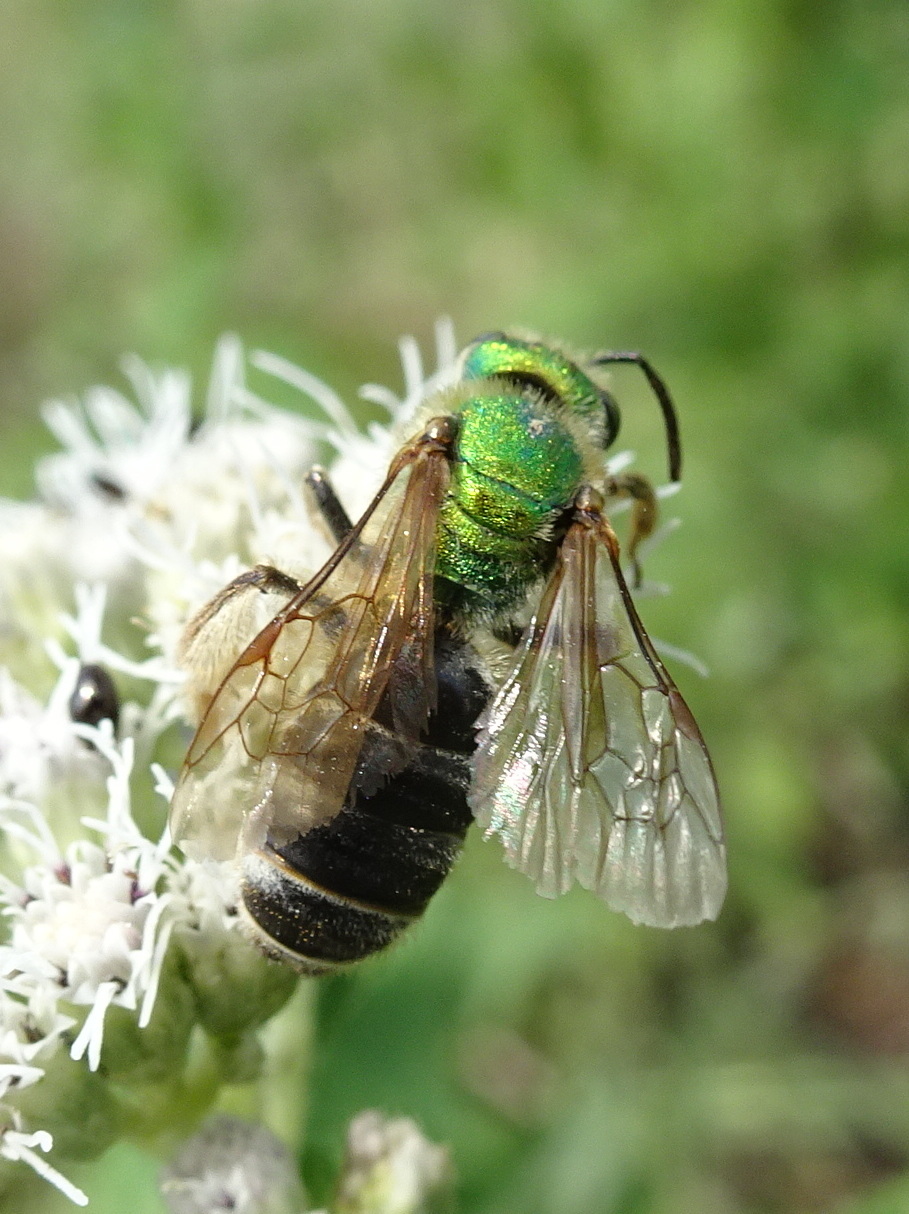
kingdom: Animalia
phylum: Arthropoda
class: Insecta
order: Hymenoptera
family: Halictidae
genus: Agapostemon
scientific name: Agapostemon virescens
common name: Bicolored striped sweat bee
